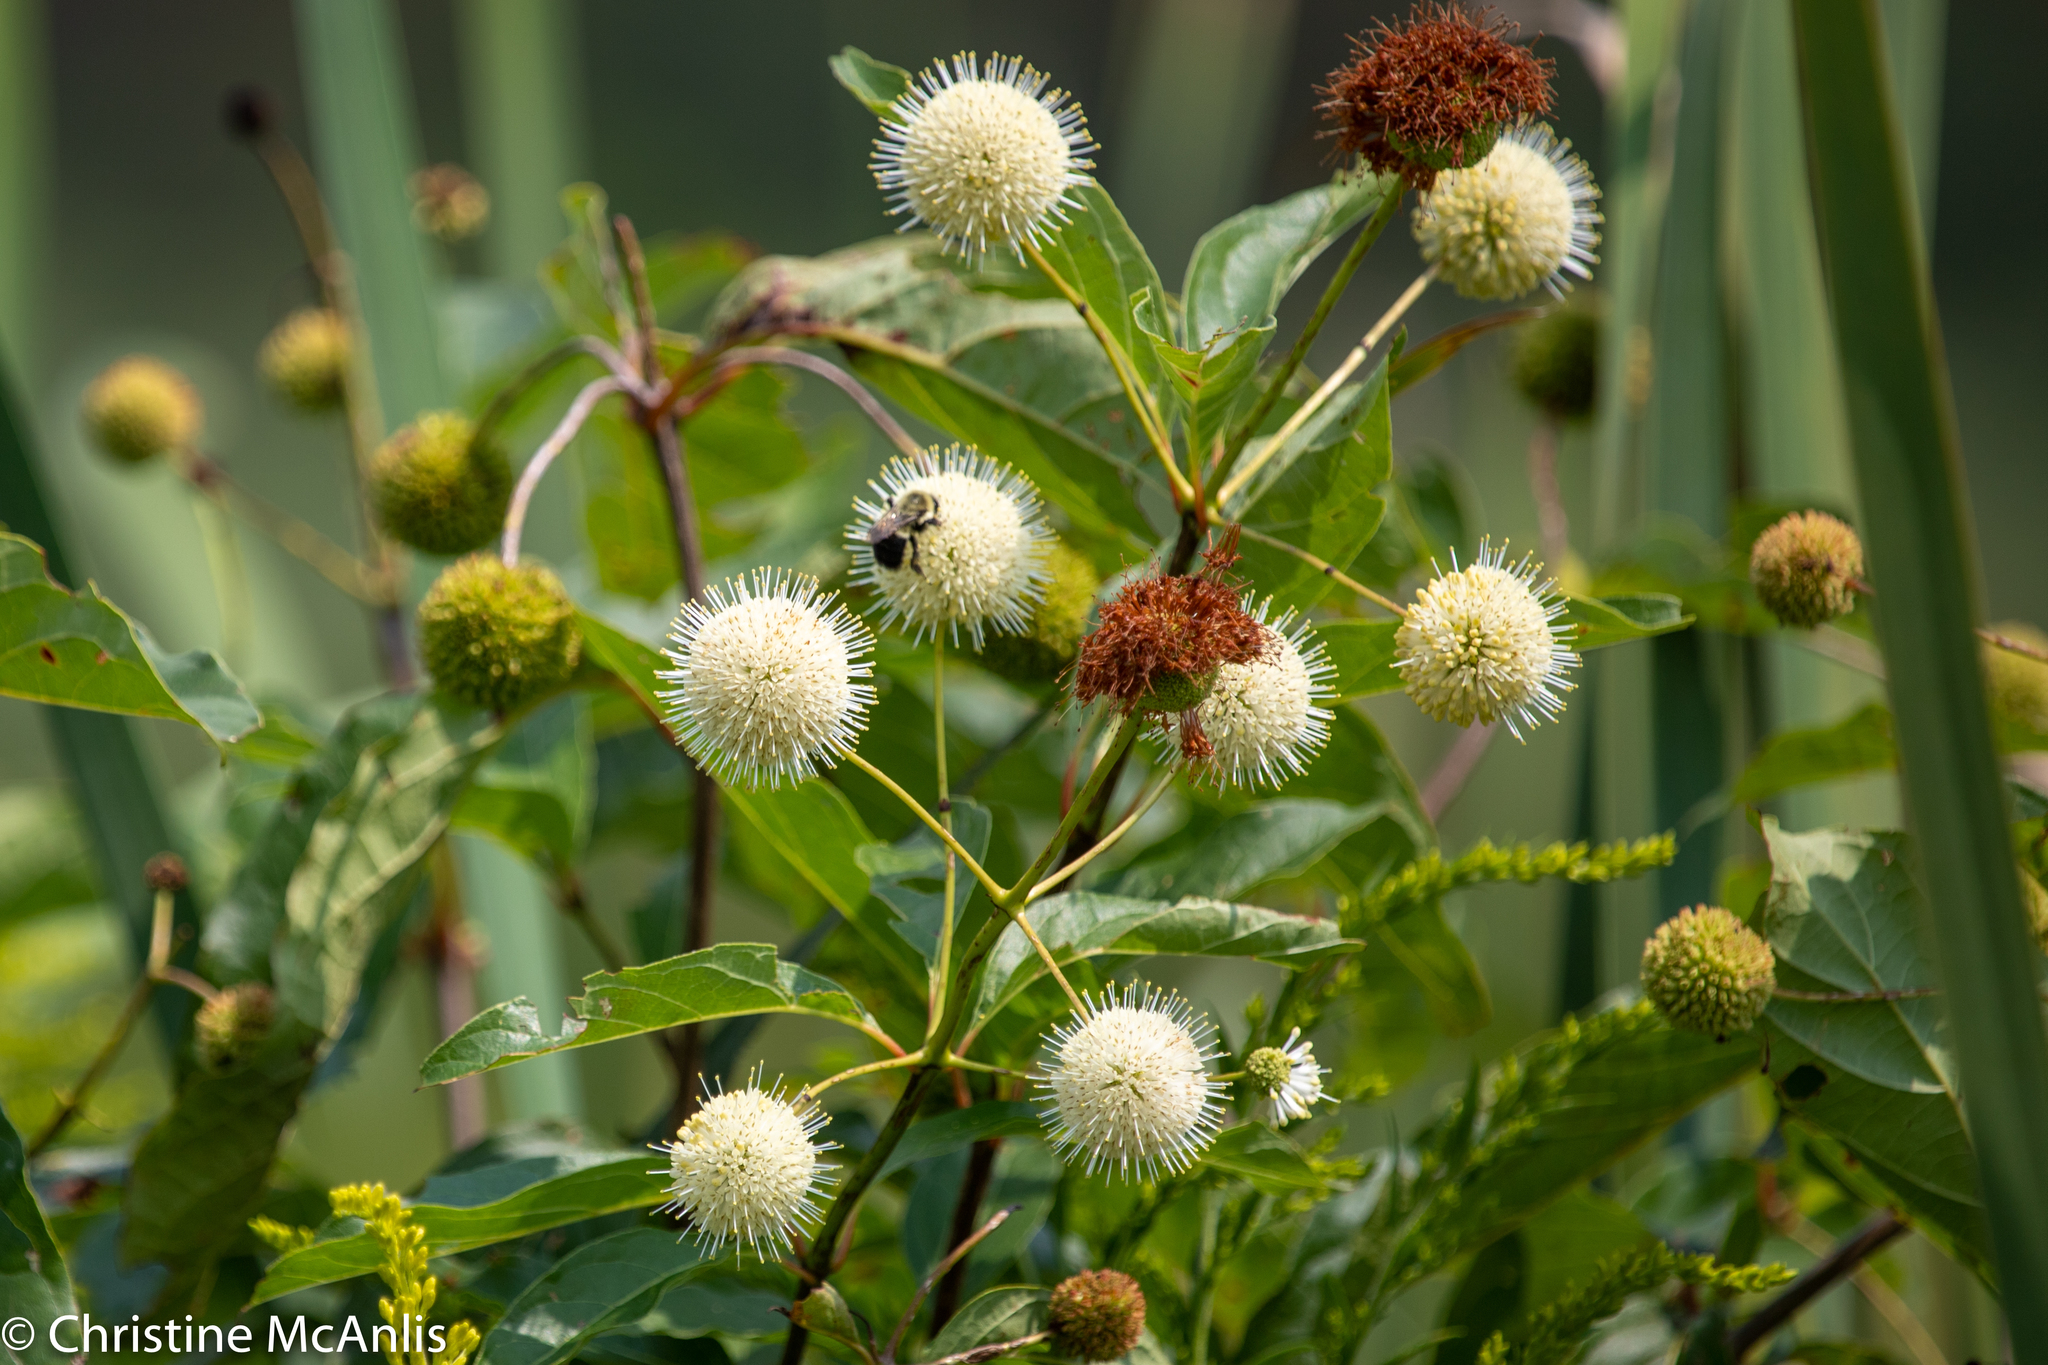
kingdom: Plantae
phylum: Tracheophyta
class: Magnoliopsida
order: Gentianales
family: Rubiaceae
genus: Cephalanthus
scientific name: Cephalanthus occidentalis
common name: Button-willow
